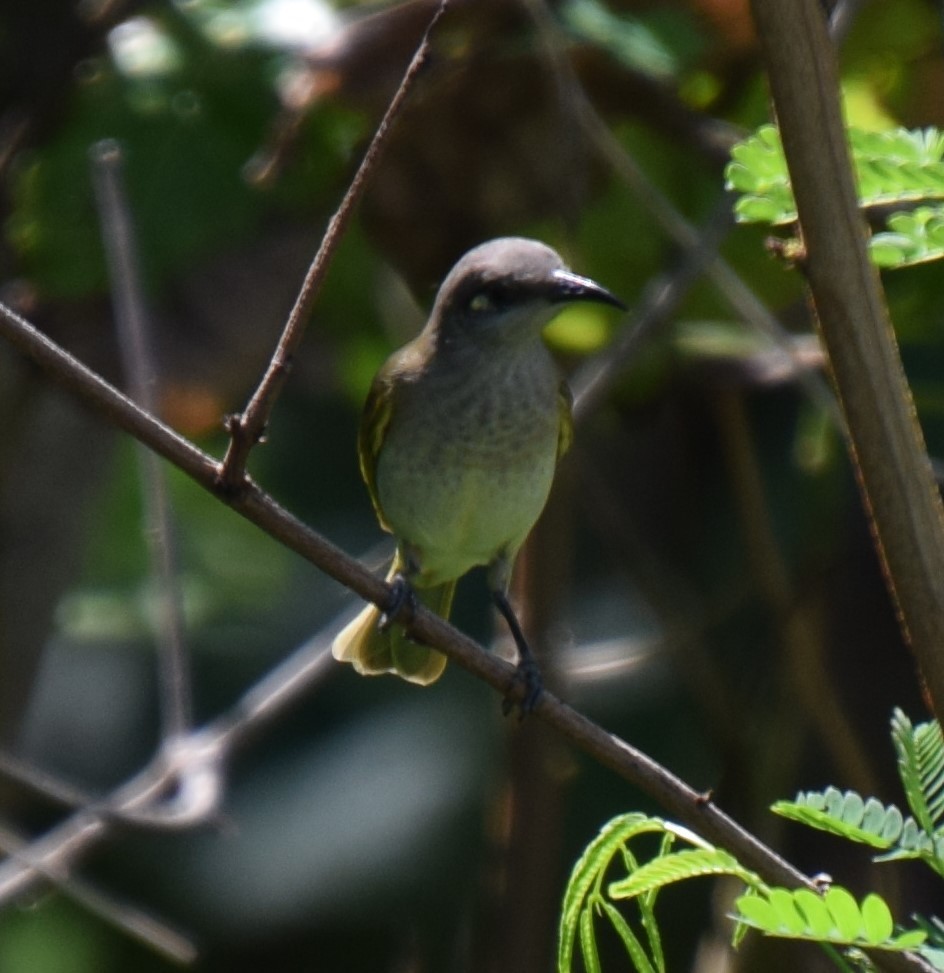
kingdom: Animalia
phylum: Chordata
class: Aves
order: Passeriformes
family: Meliphagidae
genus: Lichmera
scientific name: Lichmera indistincta
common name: Brown honeyeater
